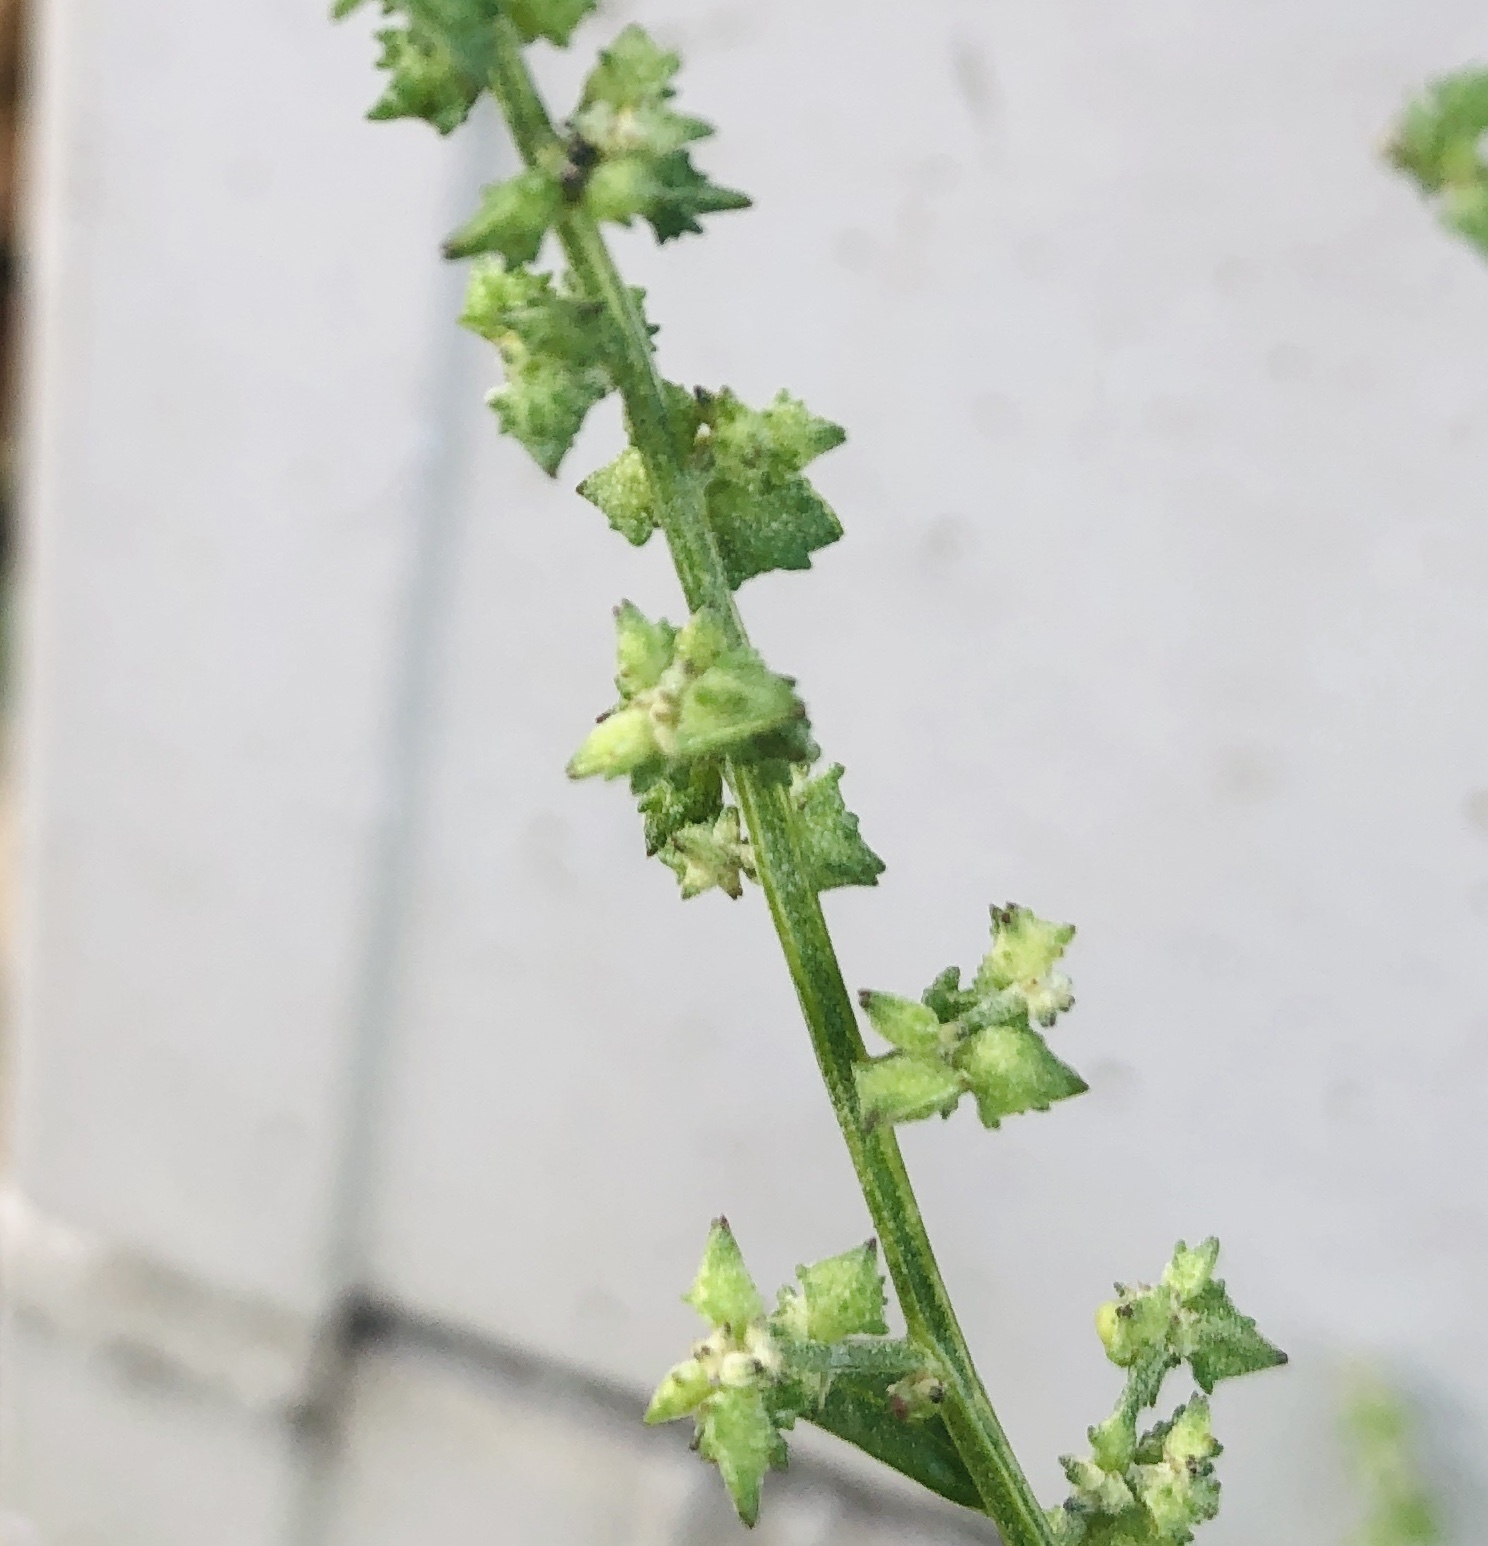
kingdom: Plantae
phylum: Tracheophyta
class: Magnoliopsida
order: Caryophyllales
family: Amaranthaceae
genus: Atriplex
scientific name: Atriplex patula
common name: Common orache
